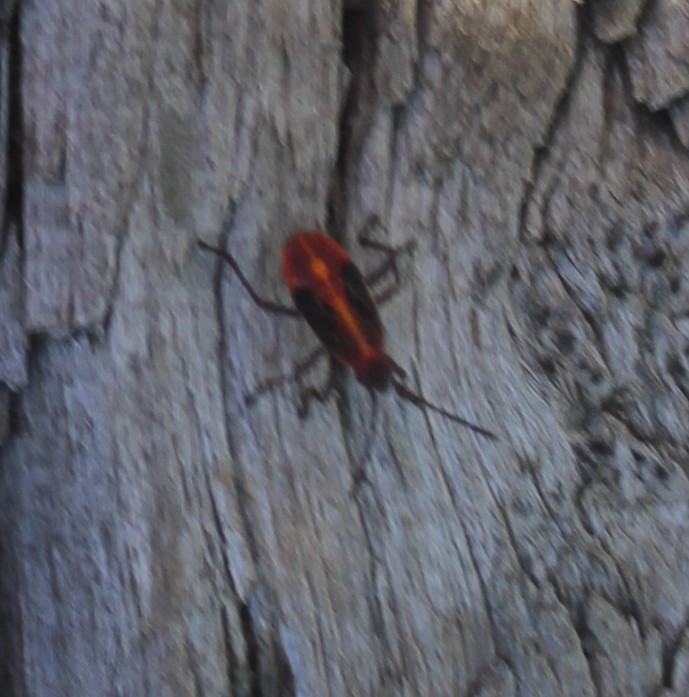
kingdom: Animalia
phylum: Arthropoda
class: Insecta
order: Hemiptera
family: Rhopalidae
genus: Boisea
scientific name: Boisea
